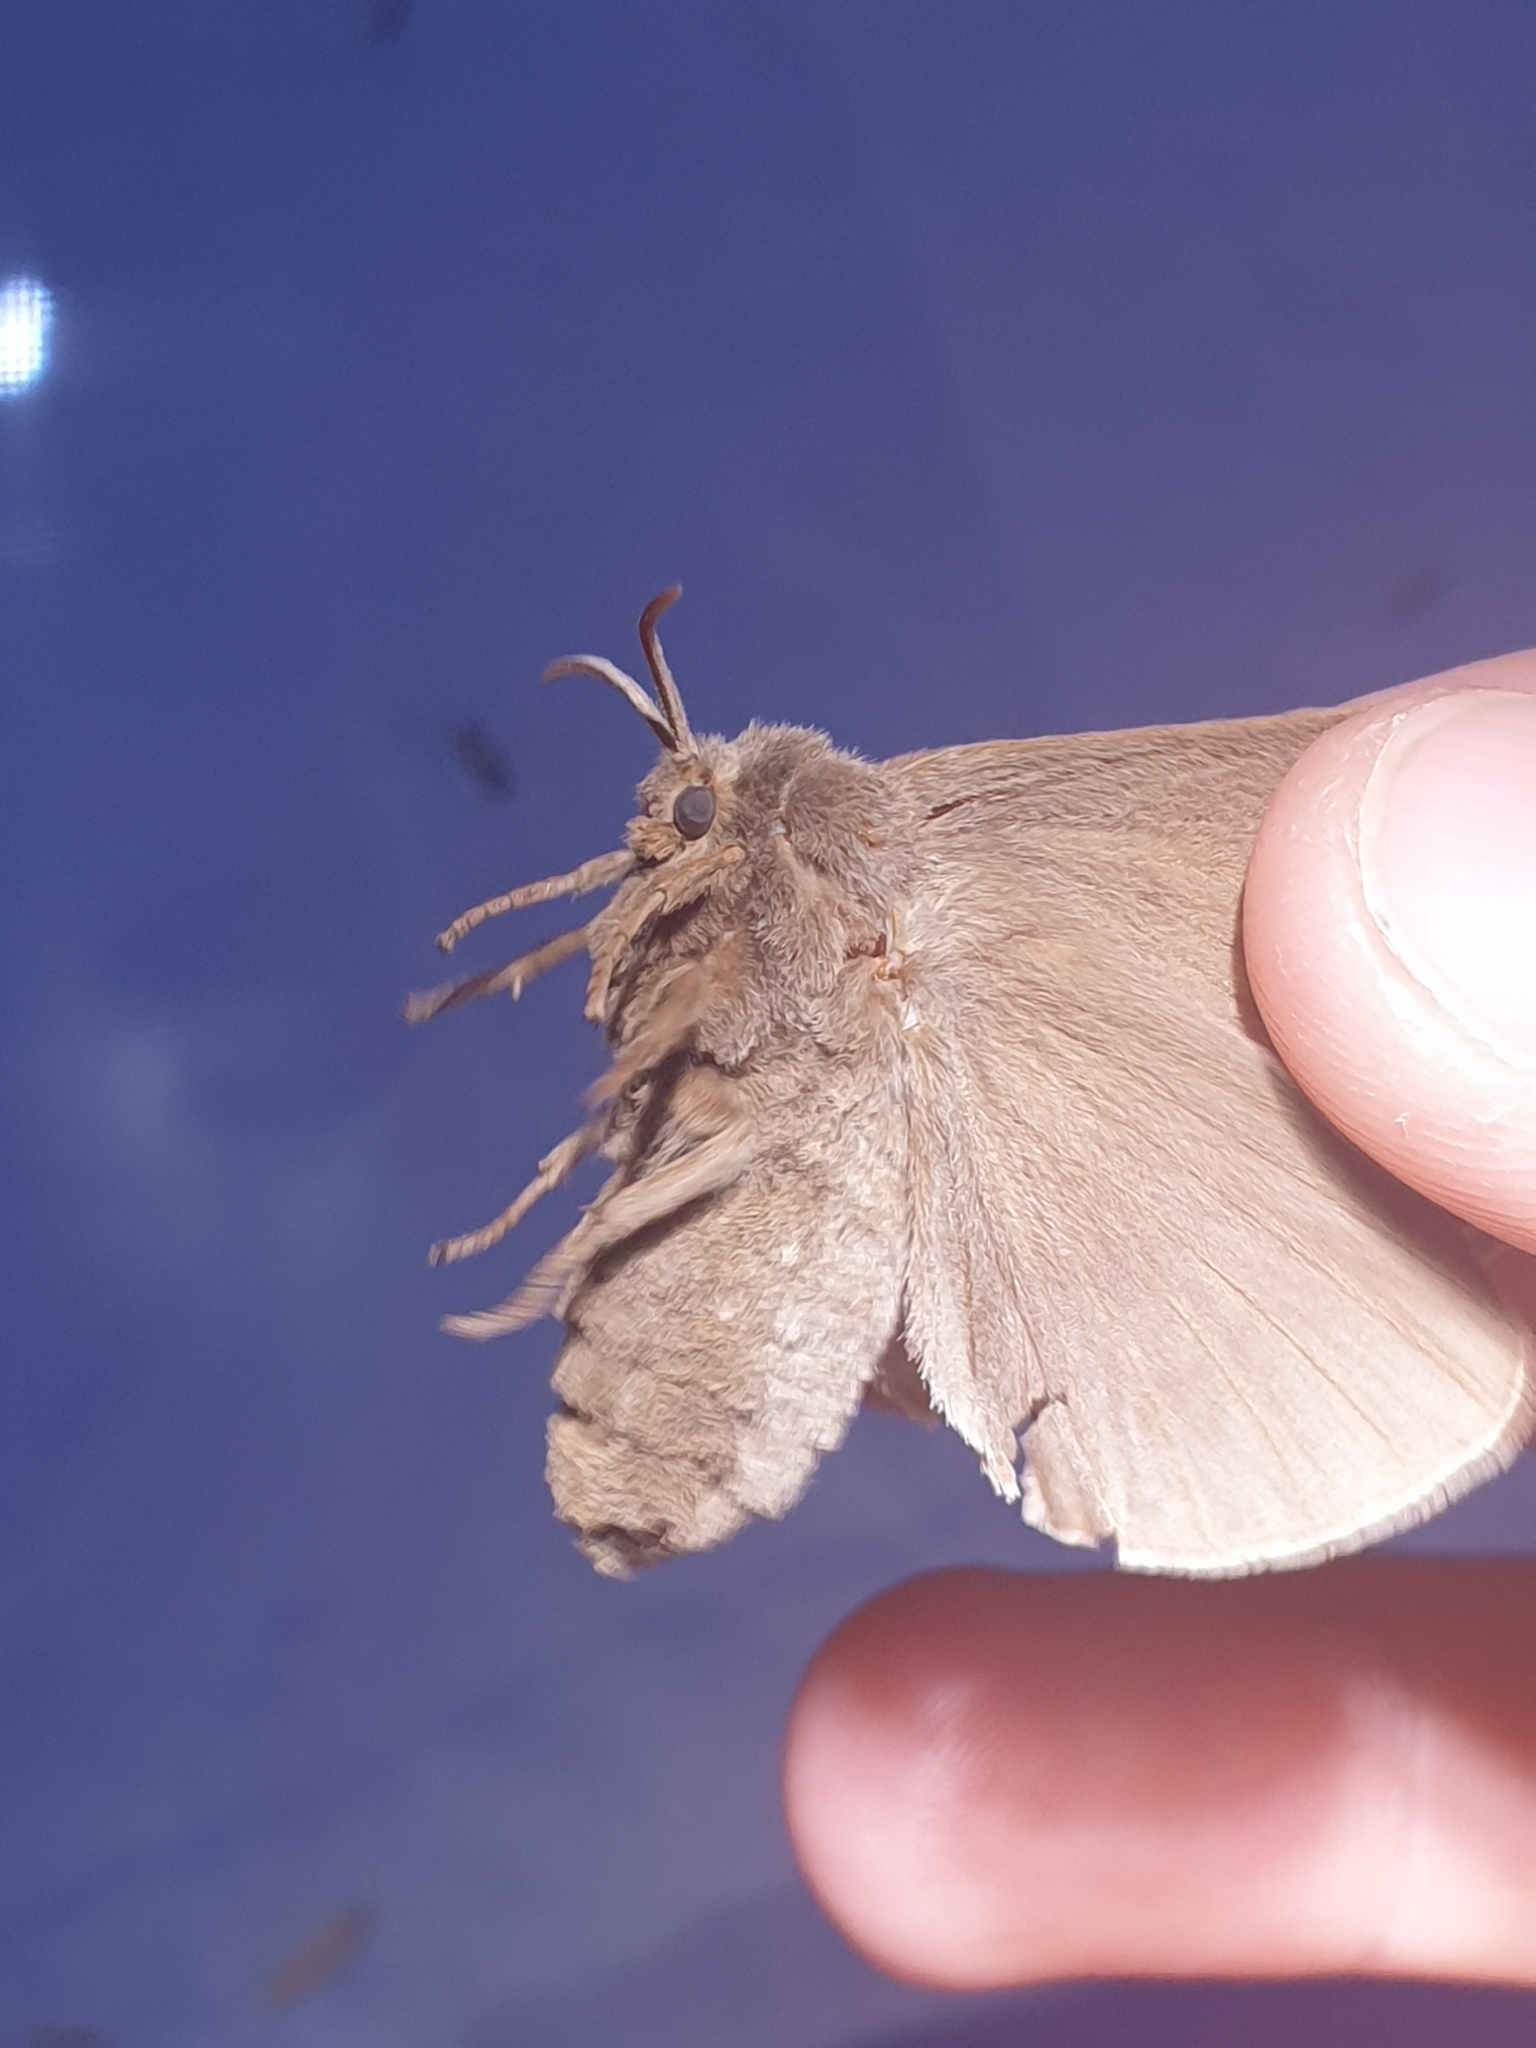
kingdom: Animalia
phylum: Arthropoda
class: Insecta
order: Lepidoptera
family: Lasiocampidae
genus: Macrothylacia
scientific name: Macrothylacia rubi
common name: Fox moth
